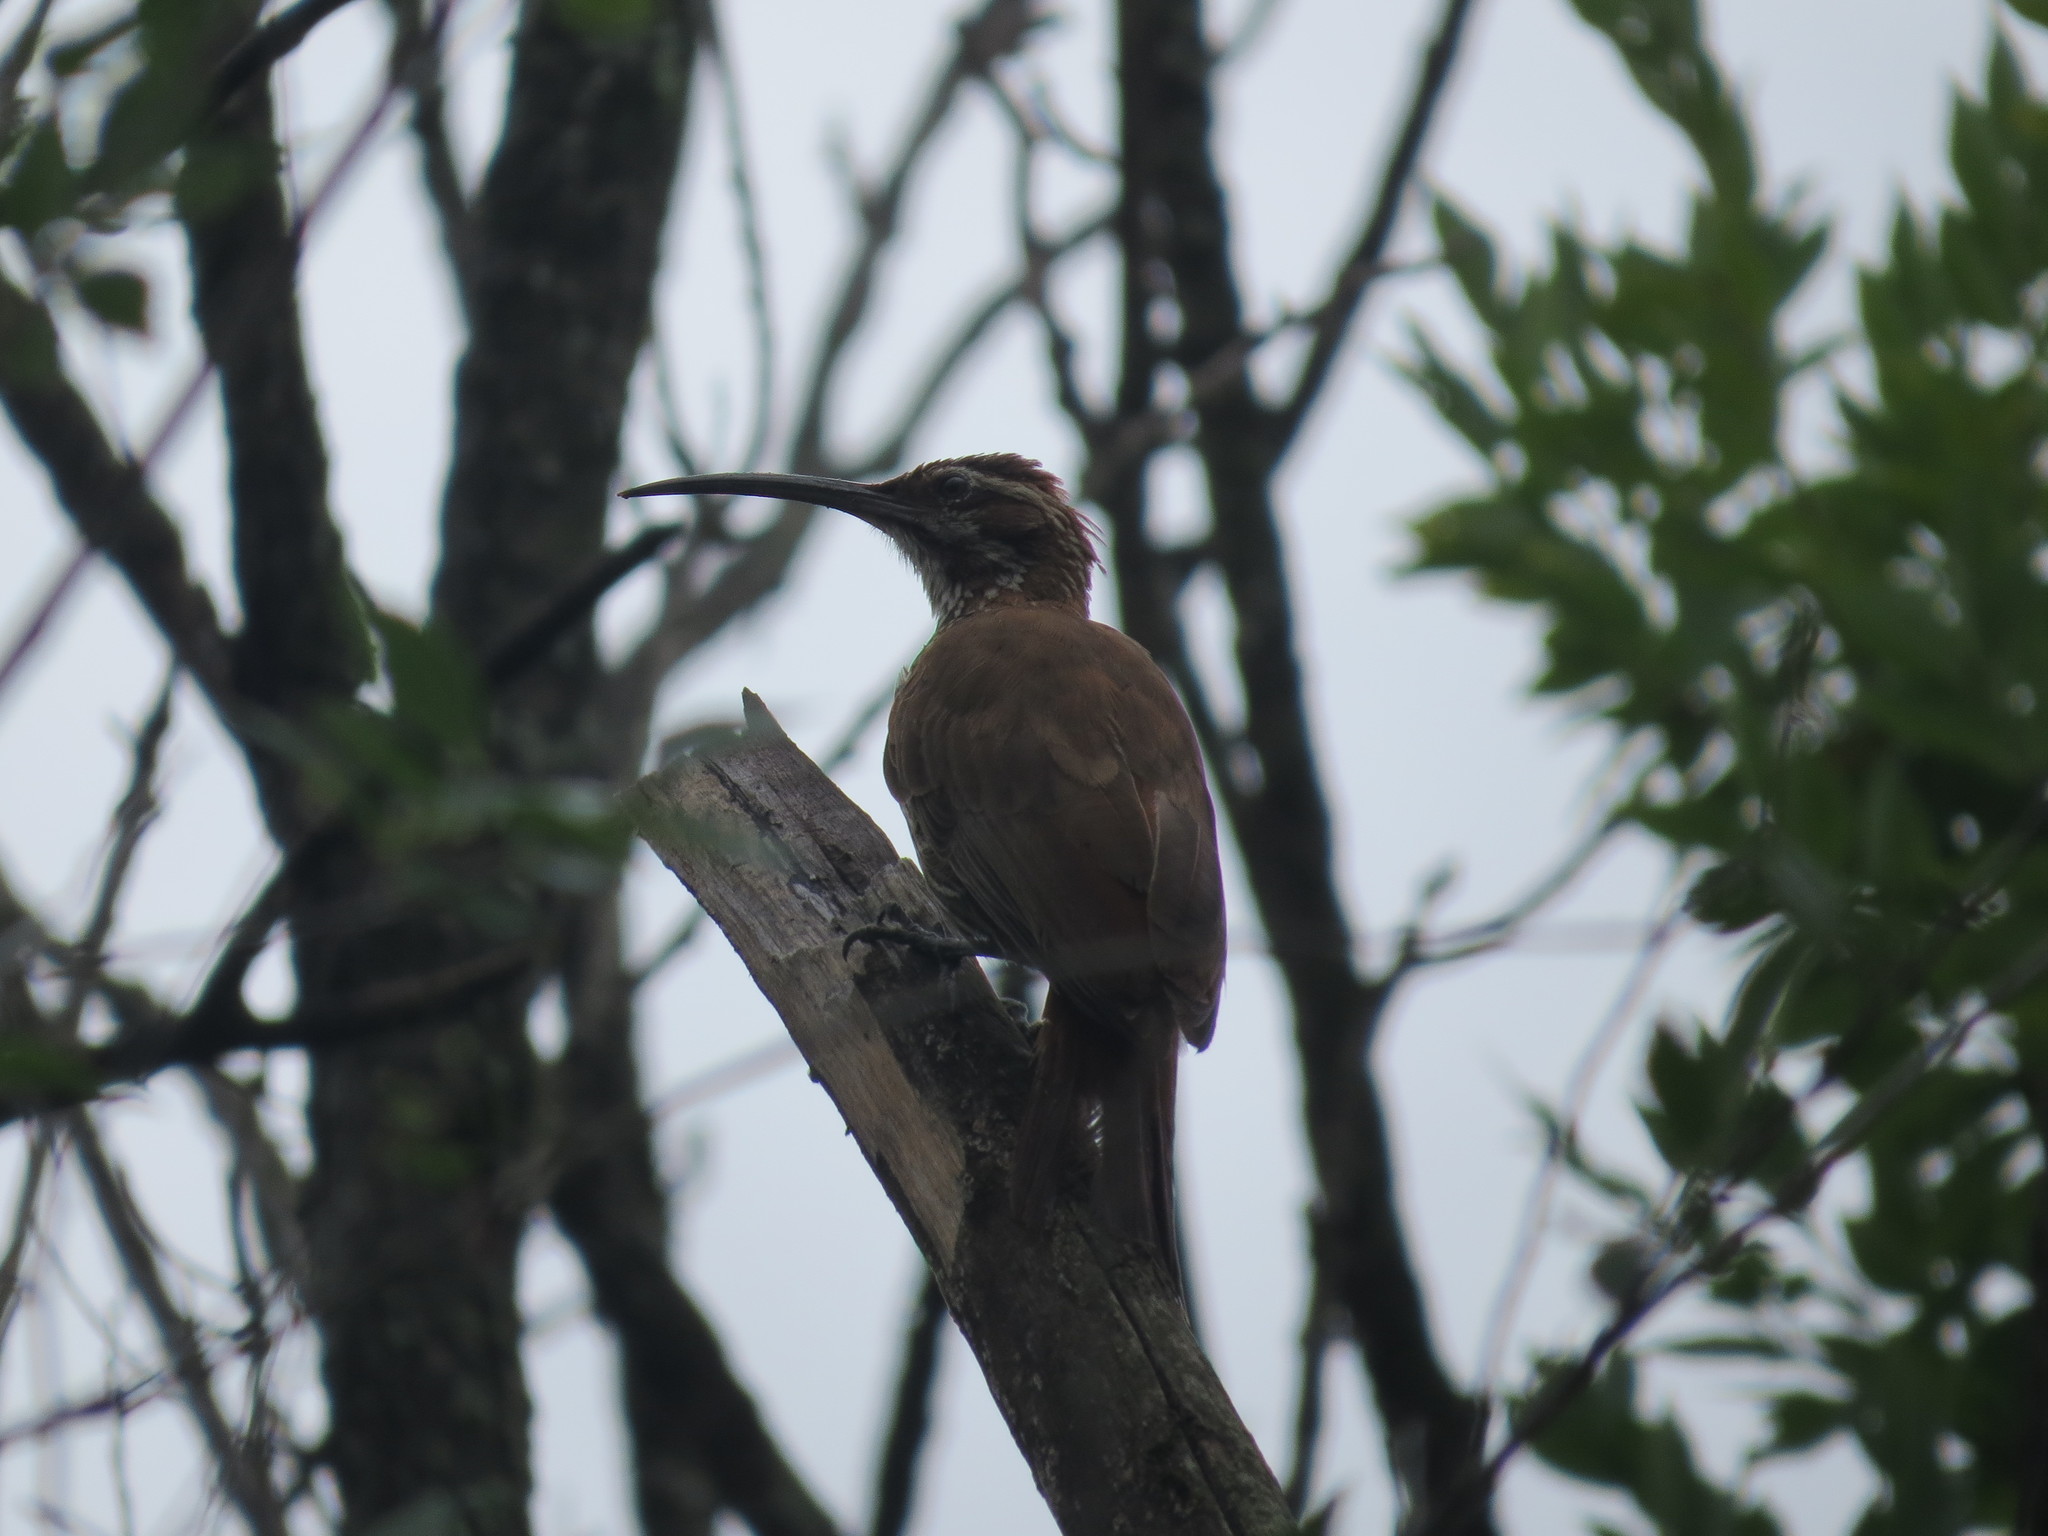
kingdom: Animalia
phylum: Chordata
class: Aves
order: Passeriformes
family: Furnariidae
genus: Drymornis
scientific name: Drymornis bridgesii
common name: Scimitar-billed woodcreeper
